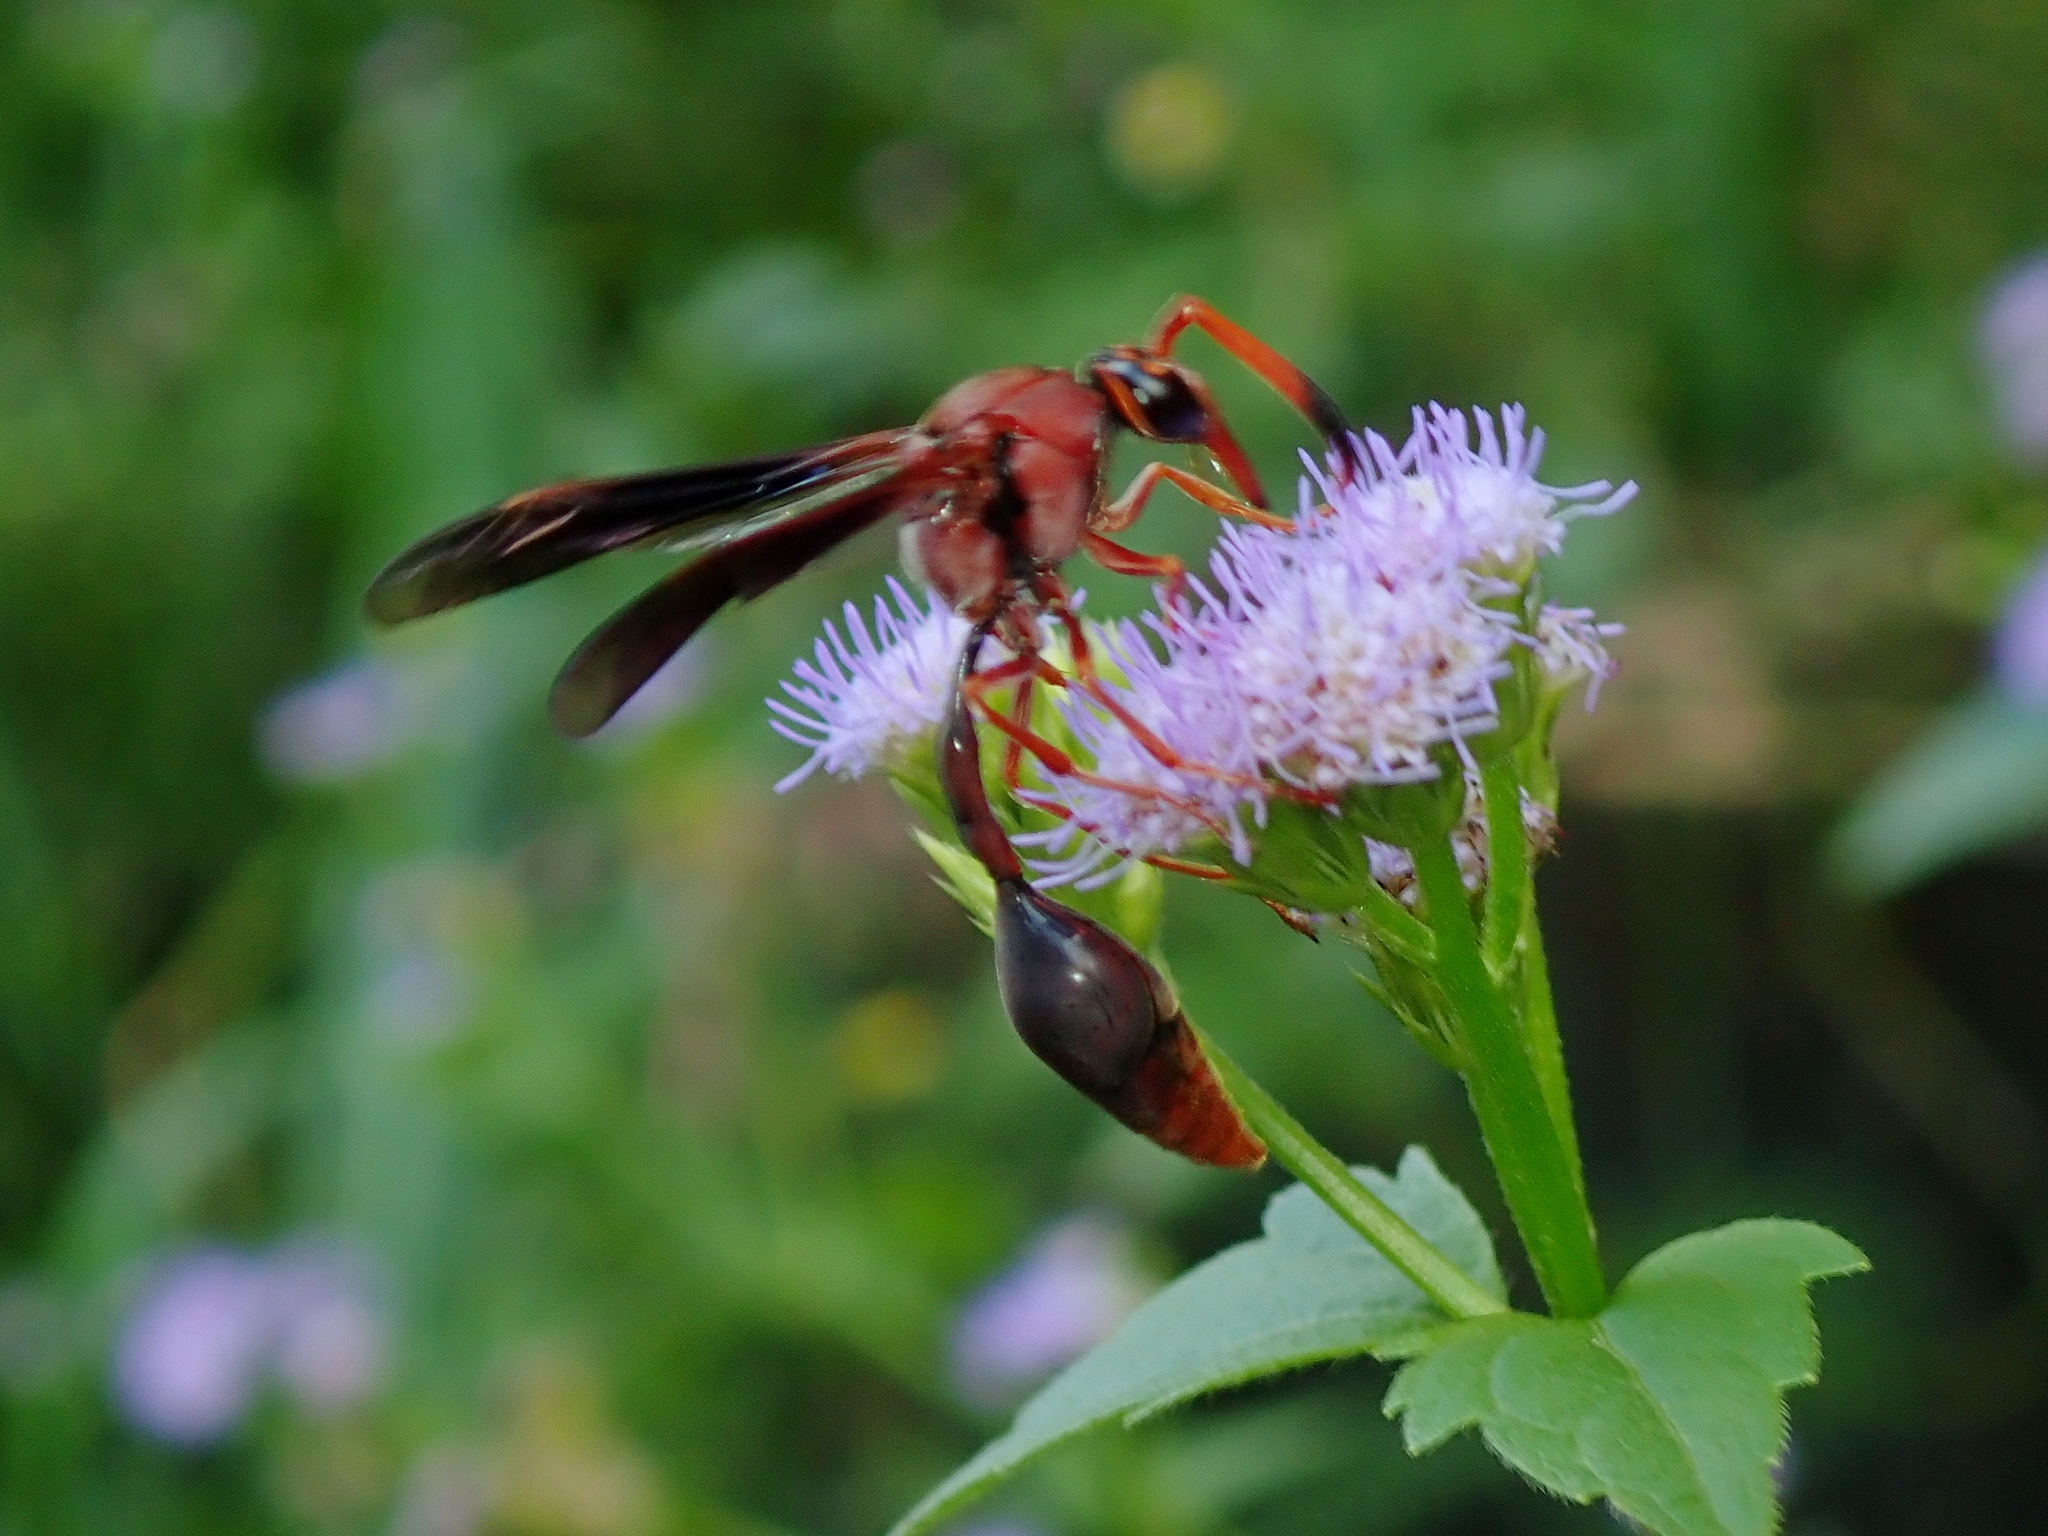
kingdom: Animalia
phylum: Arthropoda
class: Insecta
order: Hymenoptera
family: Eumenidae
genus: Zeta
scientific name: Zeta argillaceum
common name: Potter wasp
